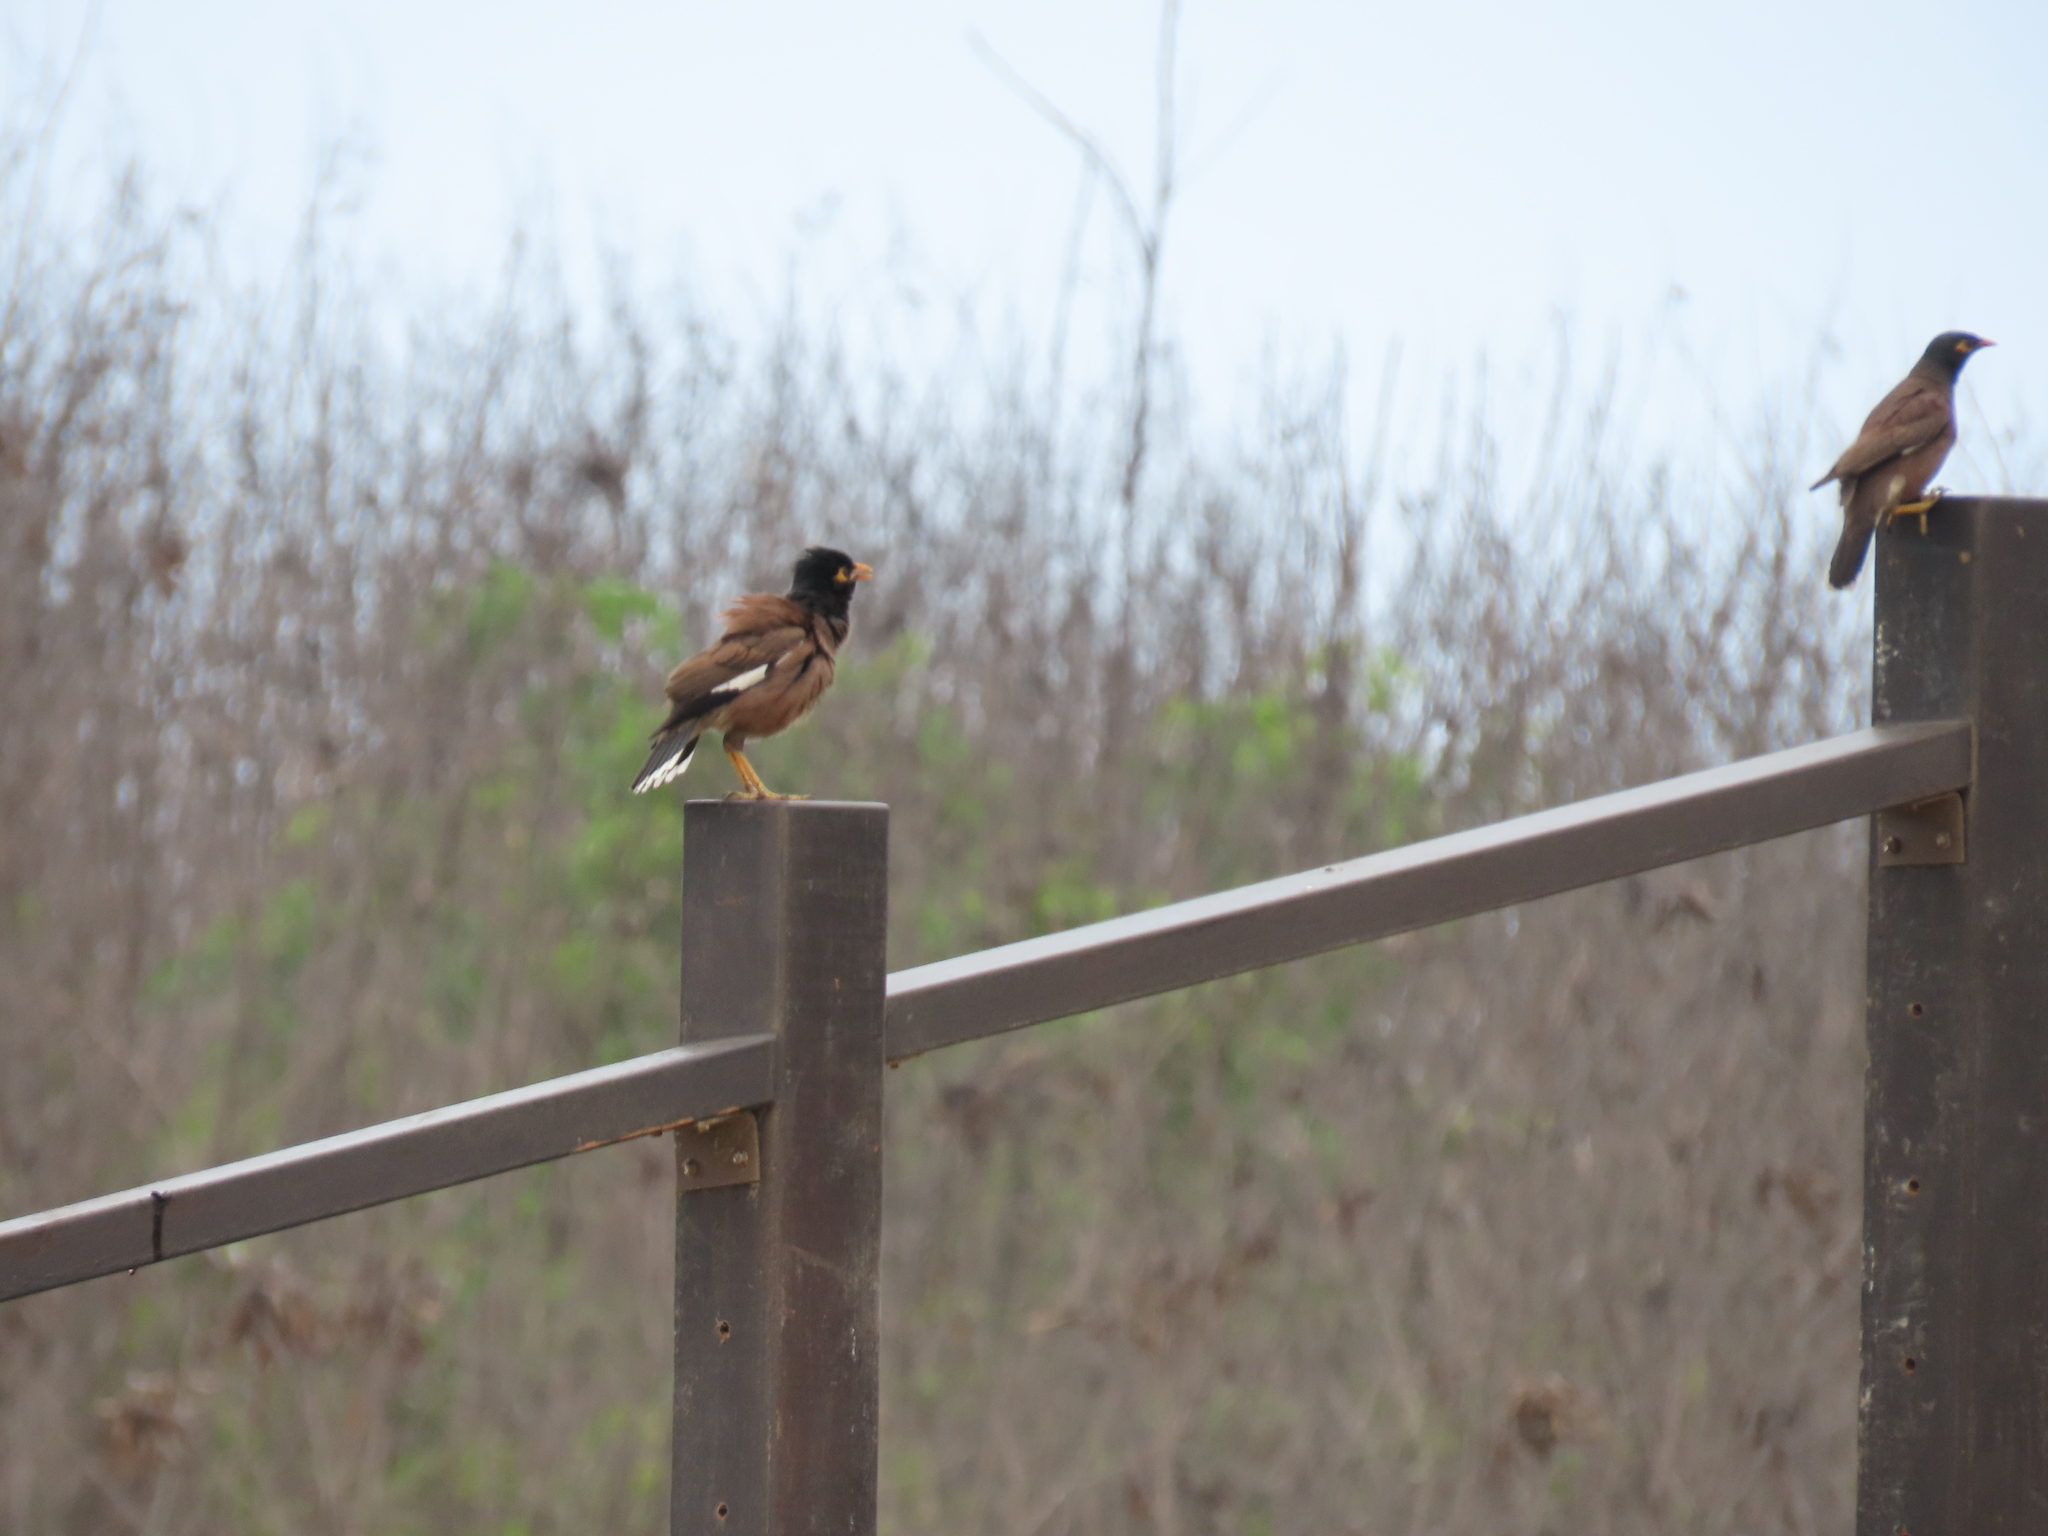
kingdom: Animalia
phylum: Chordata
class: Aves
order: Passeriformes
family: Sturnidae
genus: Acridotheres
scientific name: Acridotheres tristis
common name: Common myna
